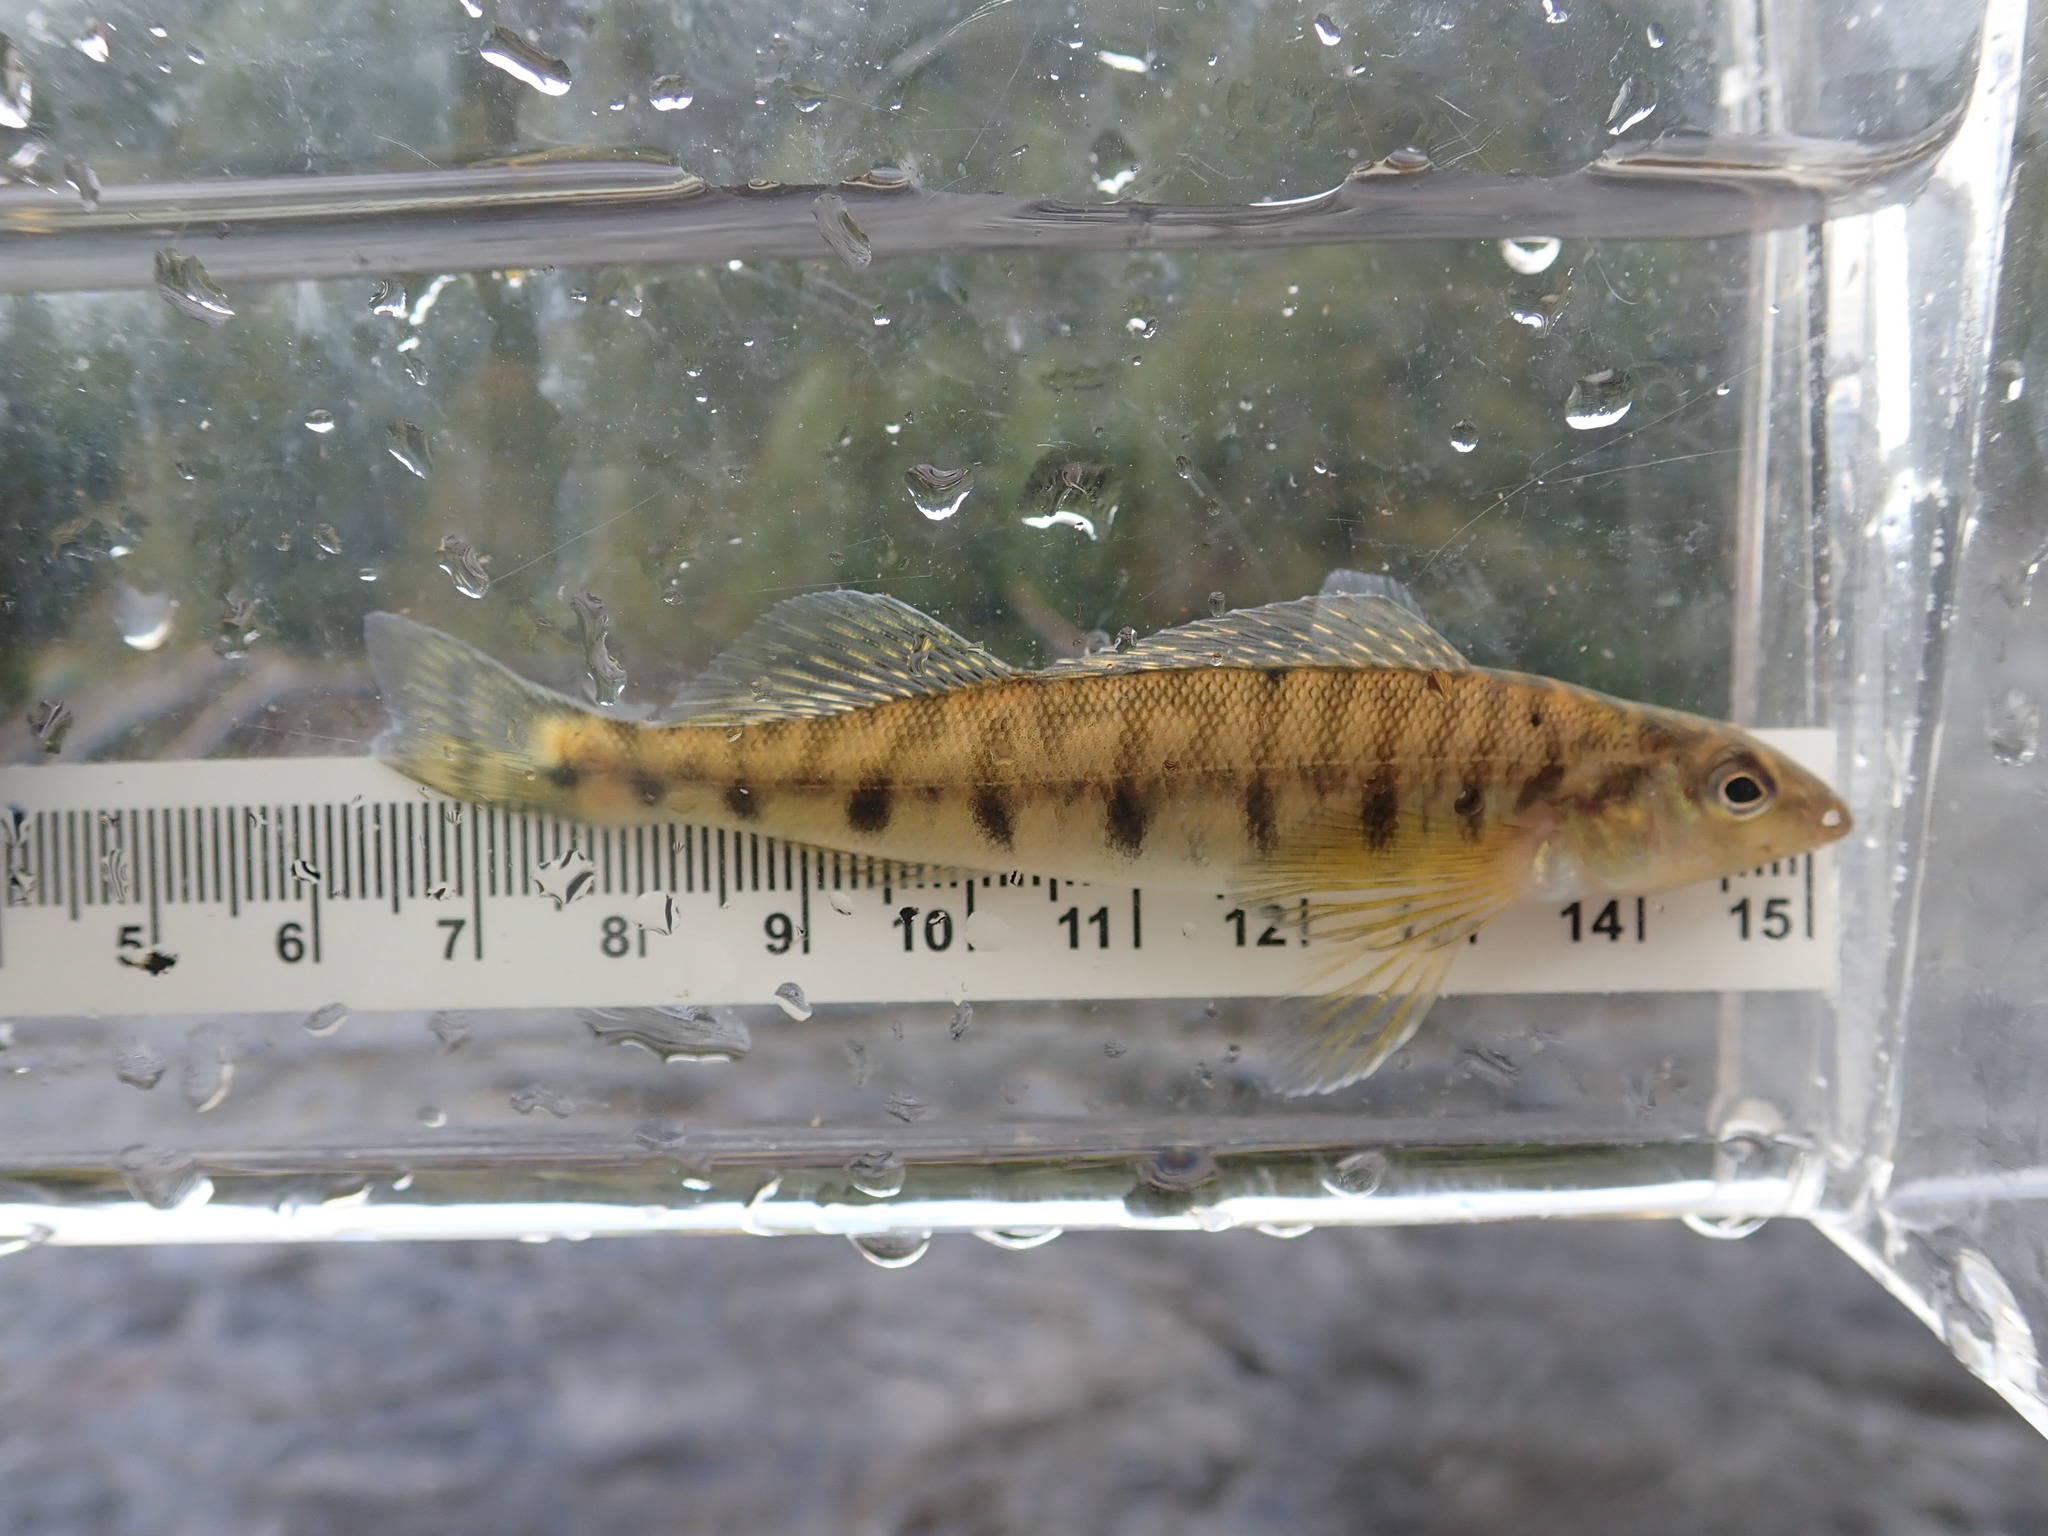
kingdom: Animalia
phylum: Chordata
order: Perciformes
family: Percidae
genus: Percina
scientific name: Percina caprodes
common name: Logperch
